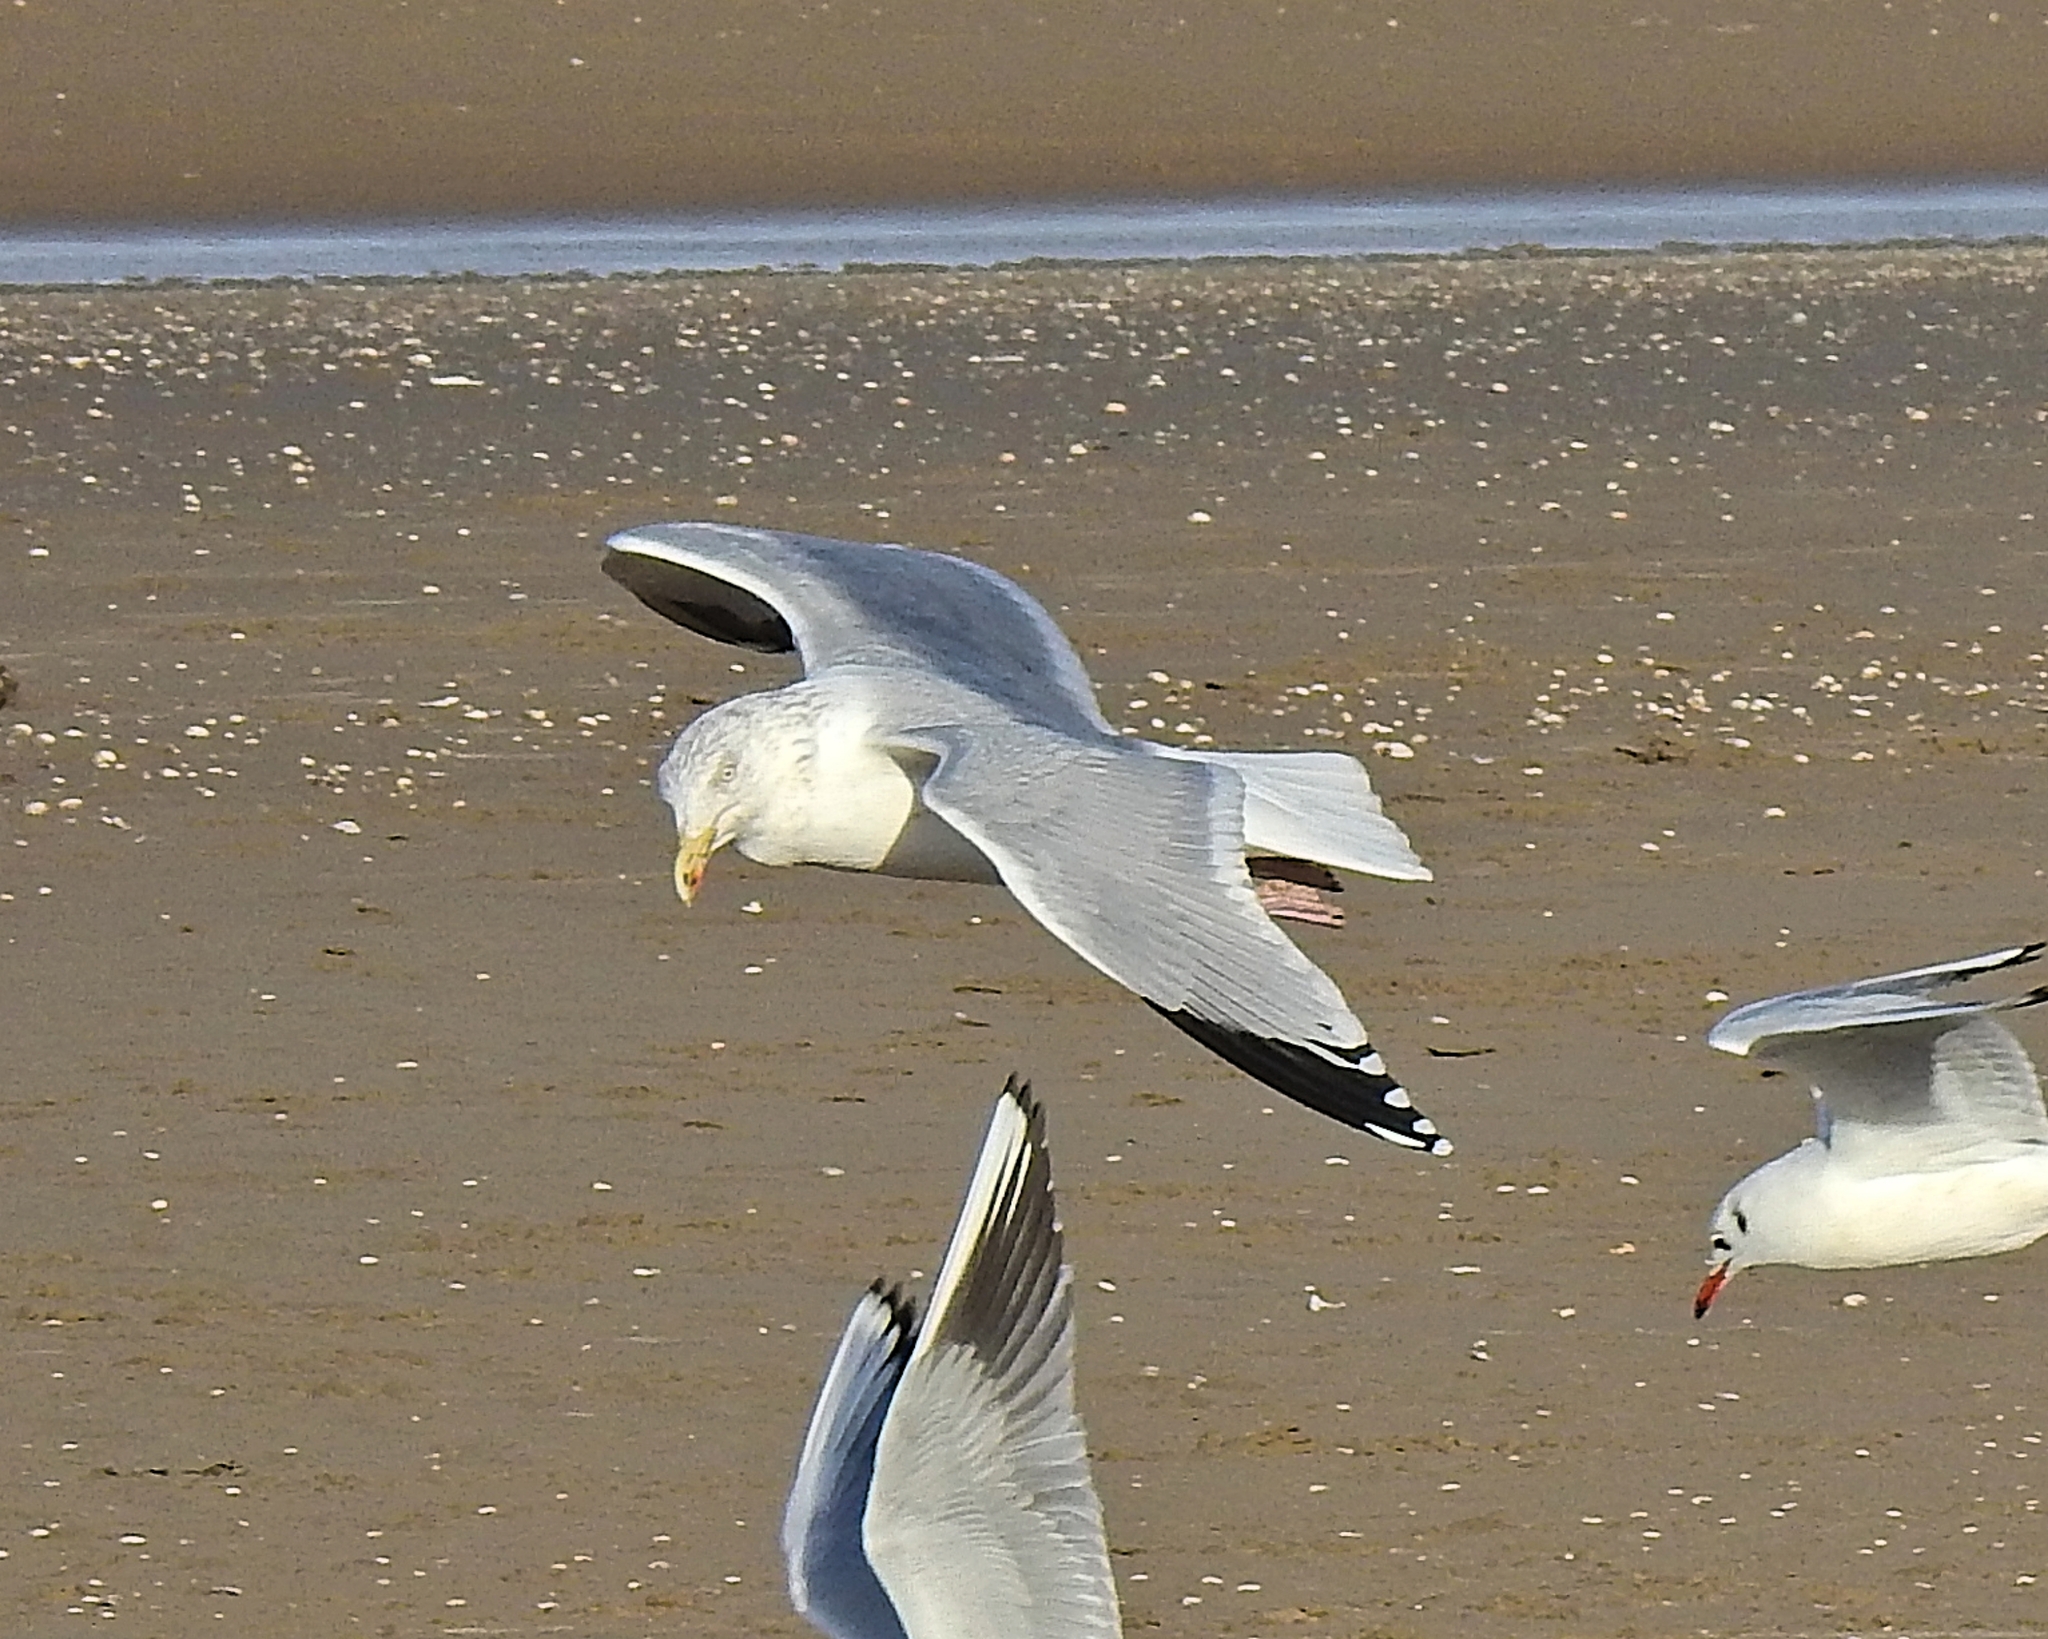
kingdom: Animalia
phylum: Chordata
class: Aves
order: Charadriiformes
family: Laridae
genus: Larus
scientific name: Larus argentatus
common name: Herring gull
